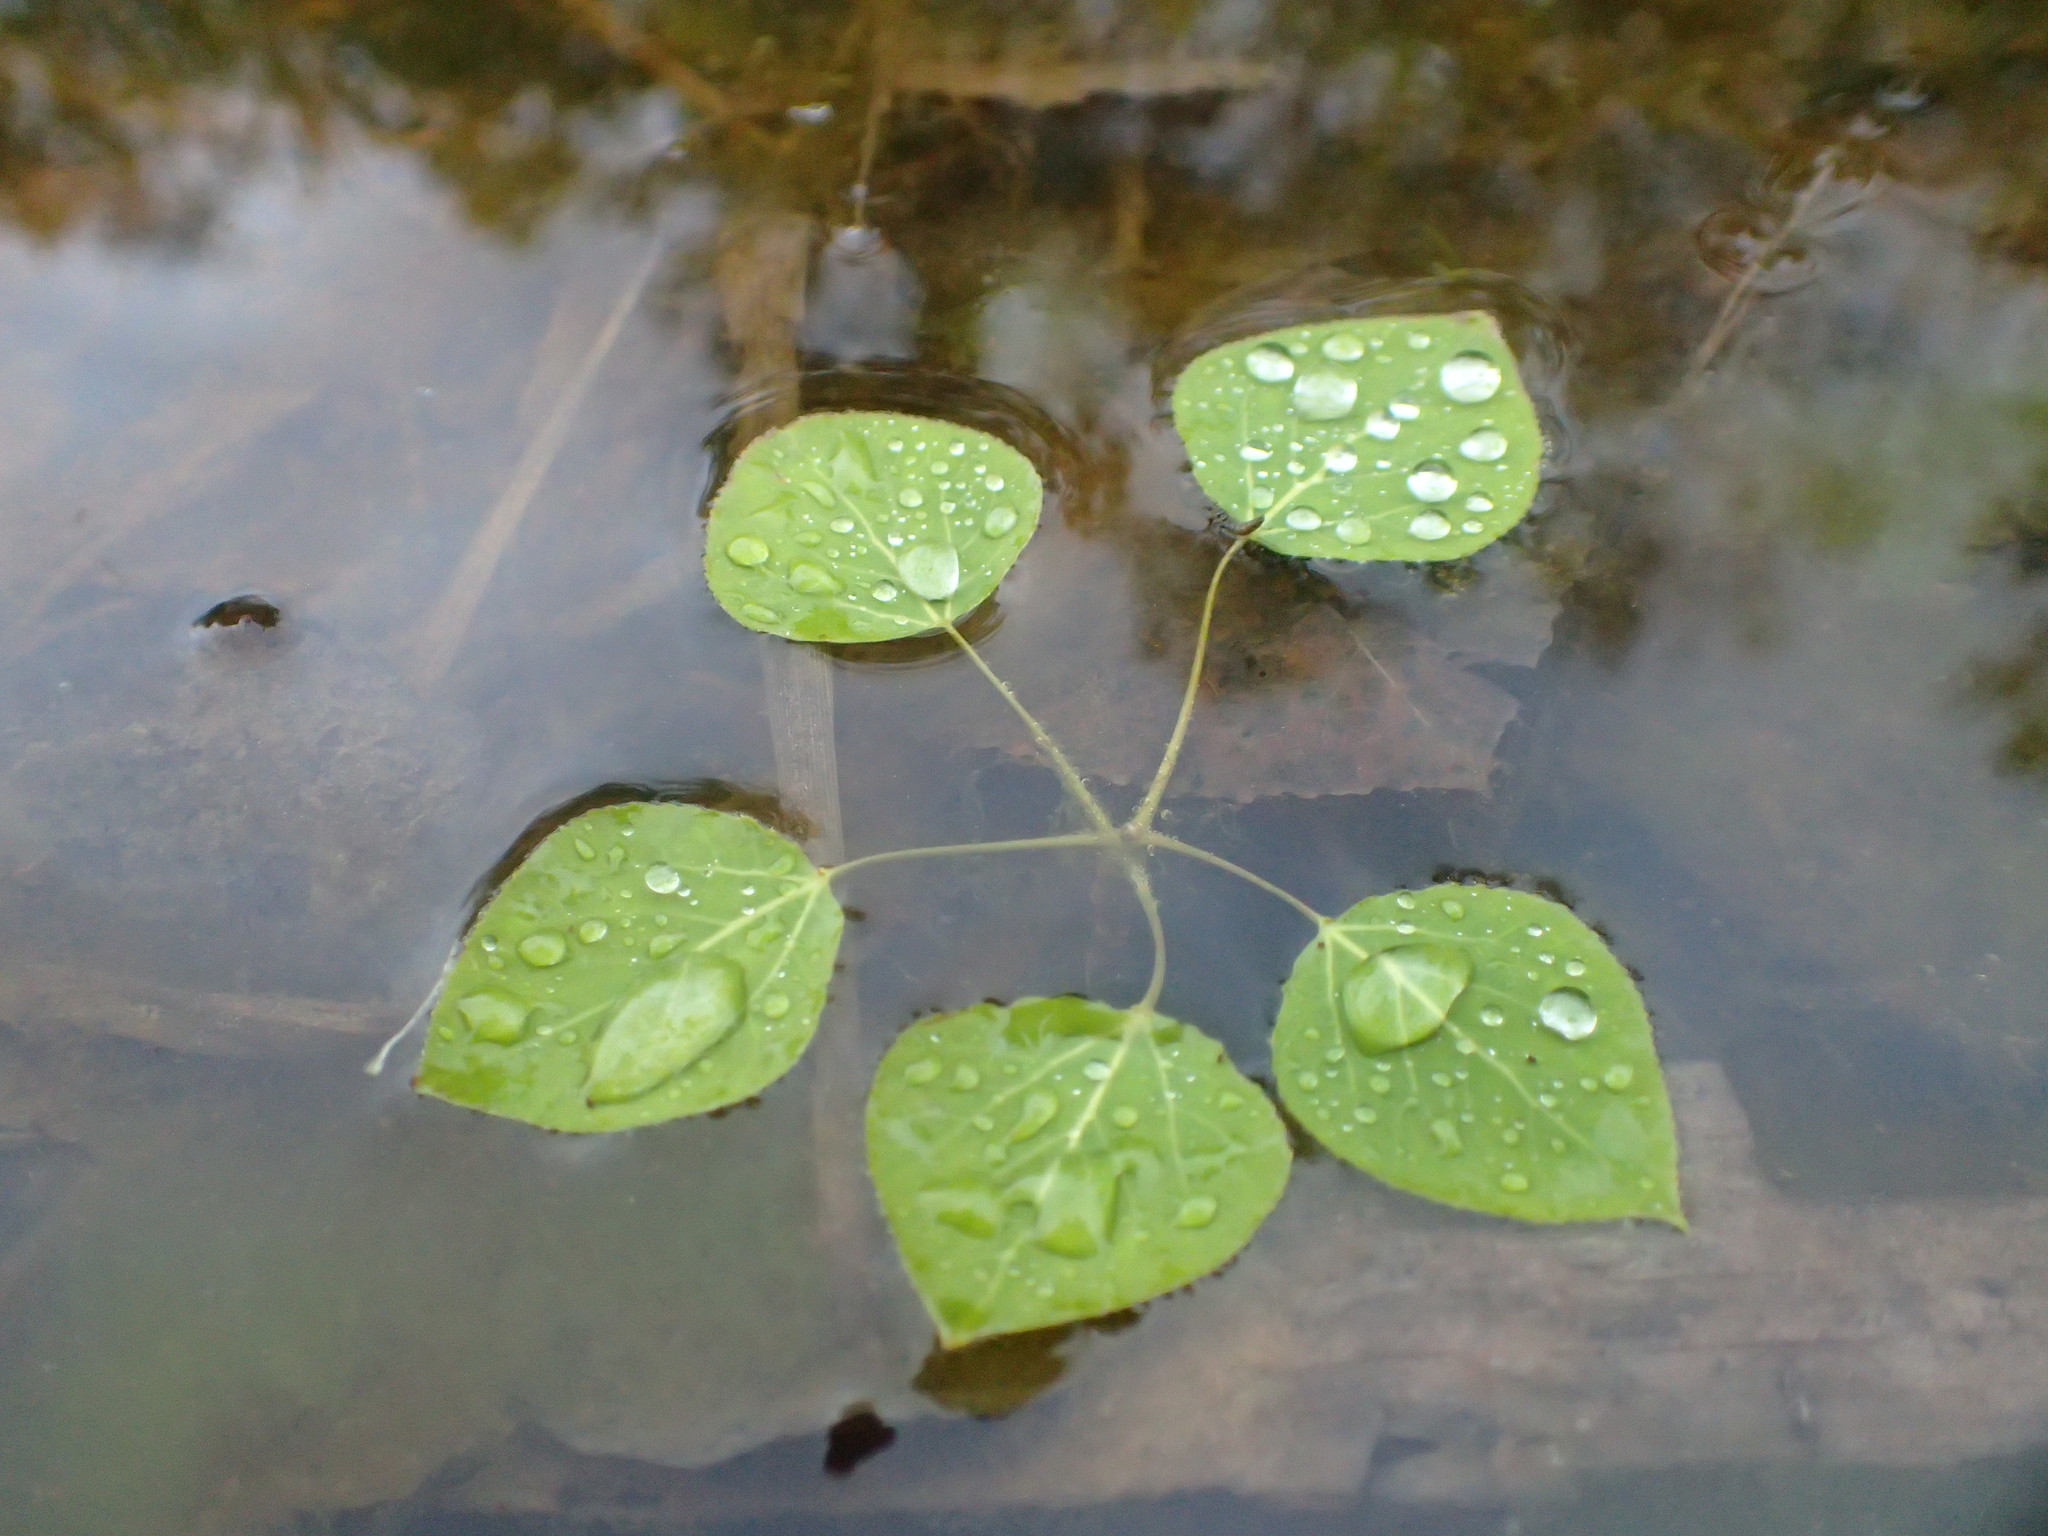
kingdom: Plantae
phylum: Tracheophyta
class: Magnoliopsida
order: Malpighiales
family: Salicaceae
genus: Populus
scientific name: Populus tremuloides
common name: Quaking aspen
